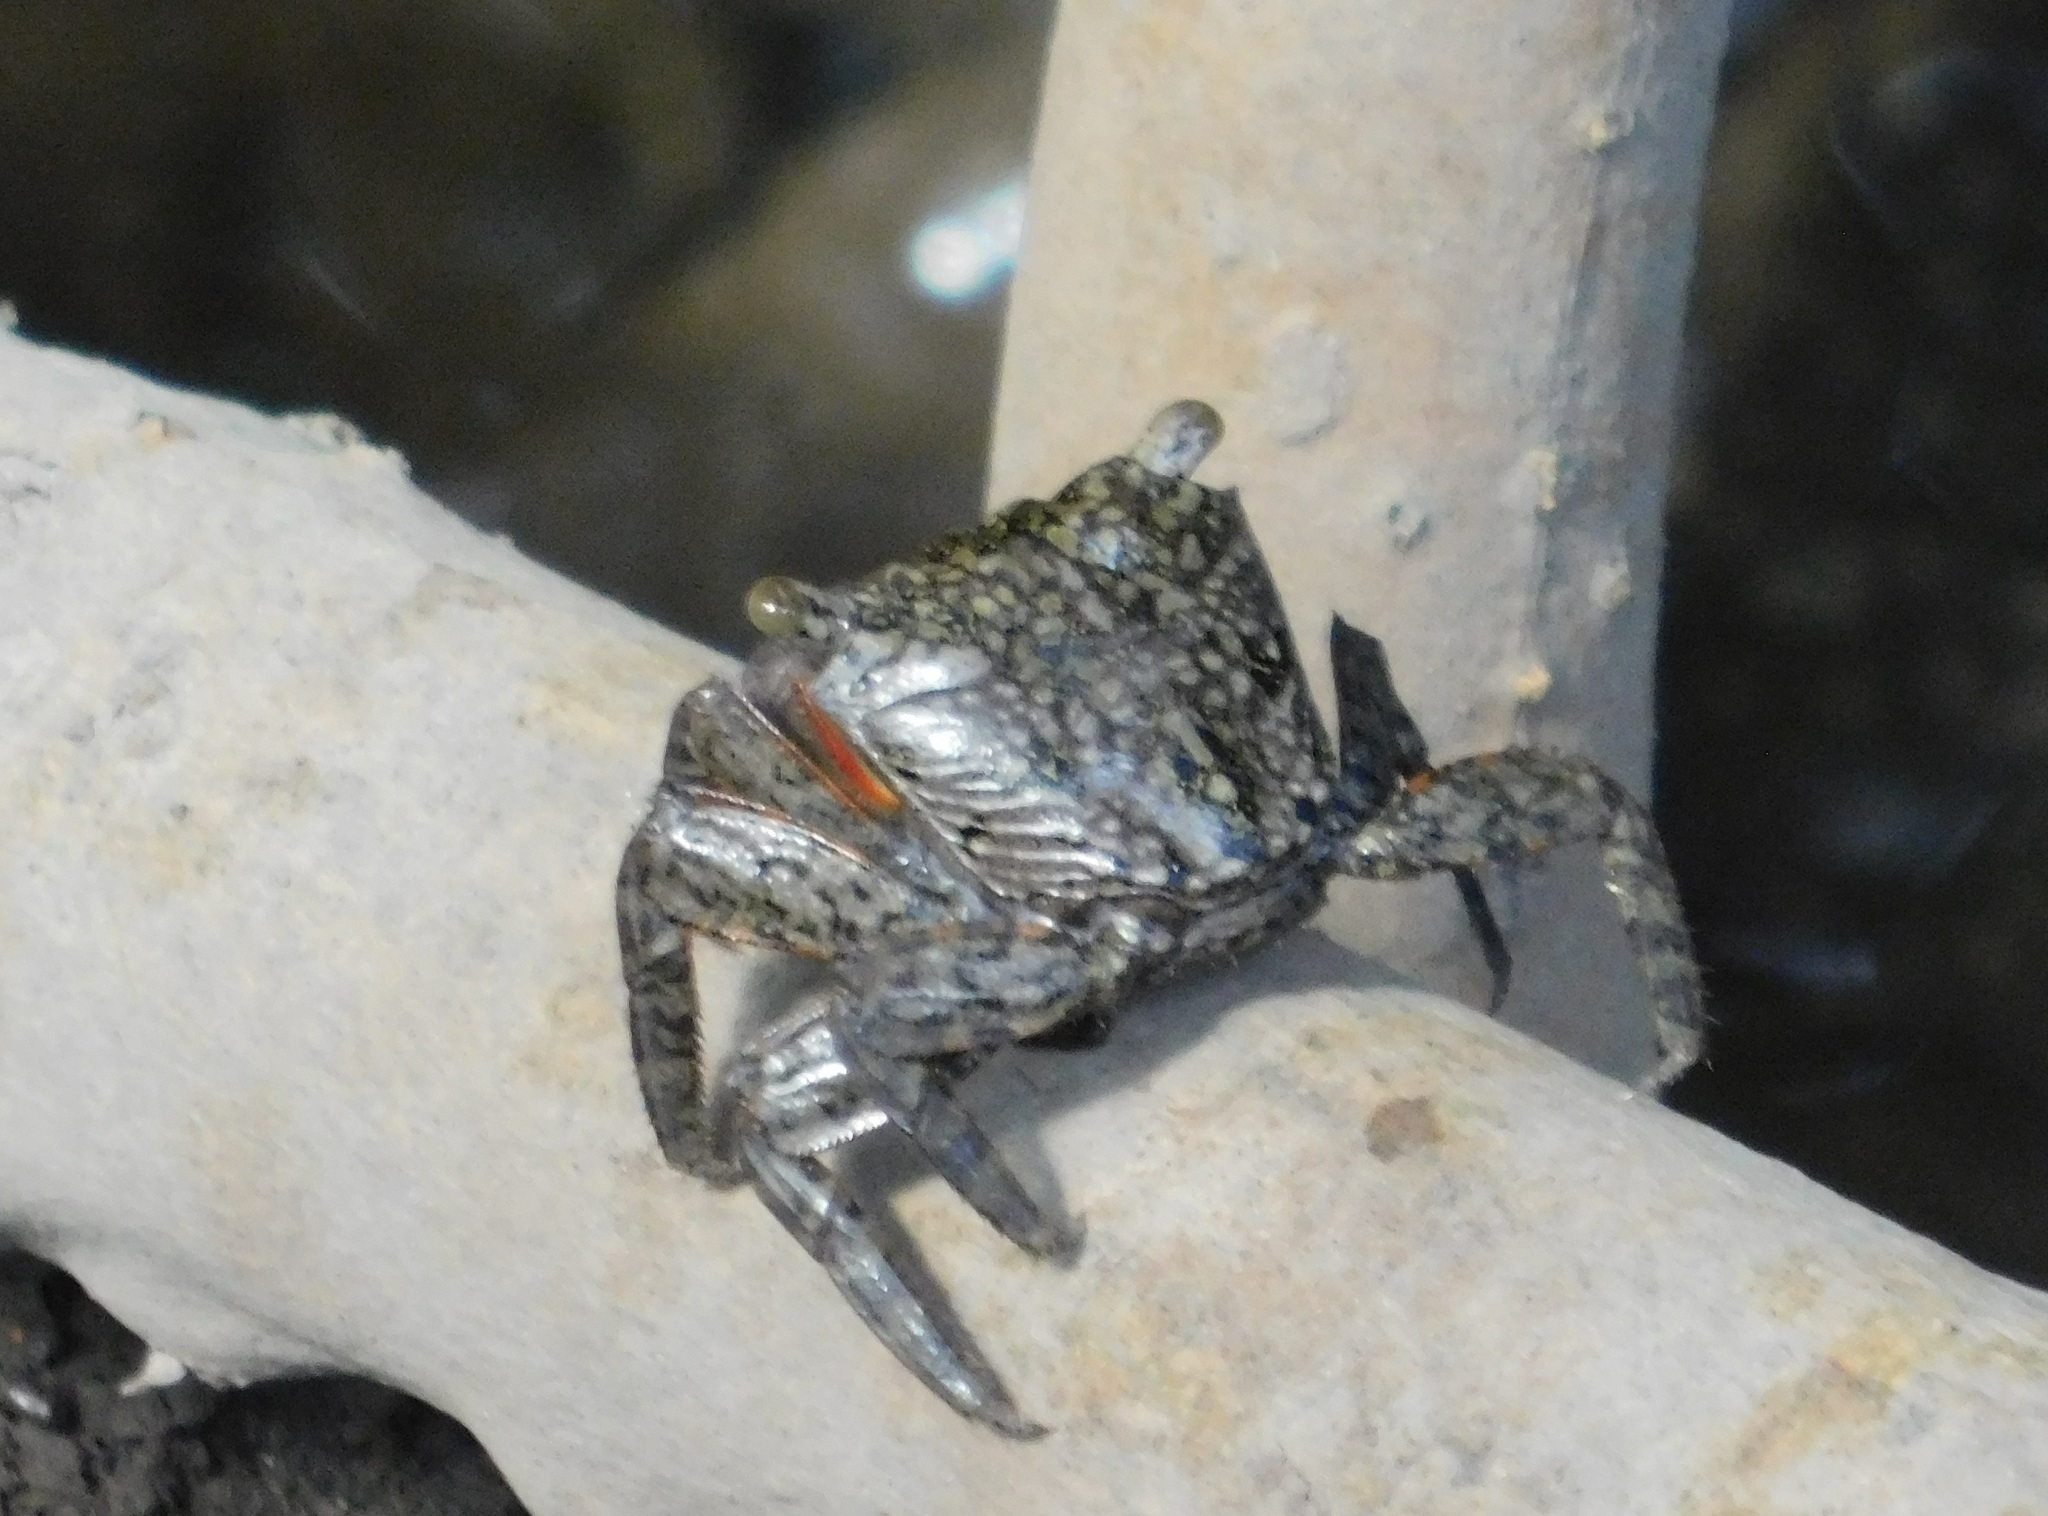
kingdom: Animalia
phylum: Arthropoda
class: Malacostraca
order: Decapoda
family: Sesarmidae
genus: Aratus
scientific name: Aratus pisonii
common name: Mangrove crab
